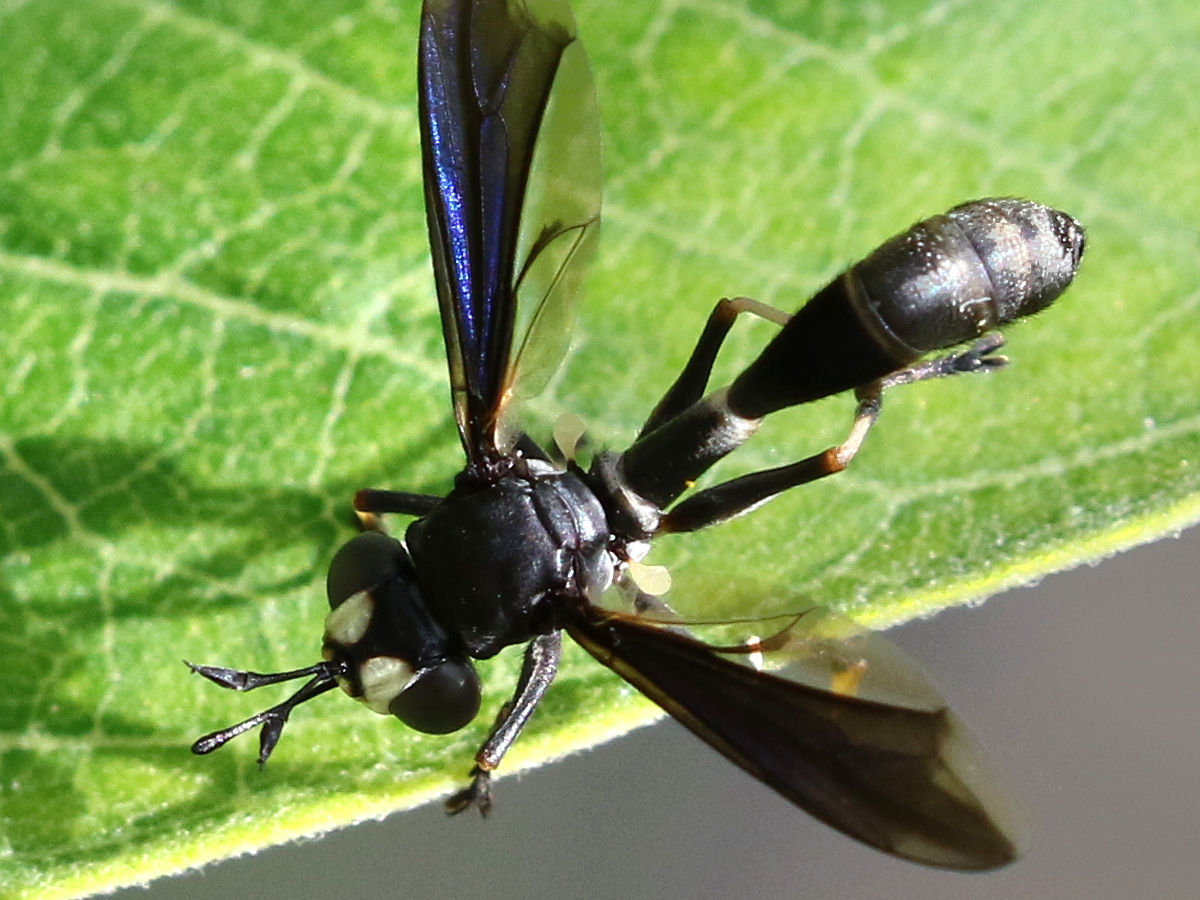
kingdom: Animalia
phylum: Arthropoda
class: Insecta
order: Diptera
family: Conopidae
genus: Physocephala
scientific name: Physocephala tibialis
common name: Common eastern physocephala
